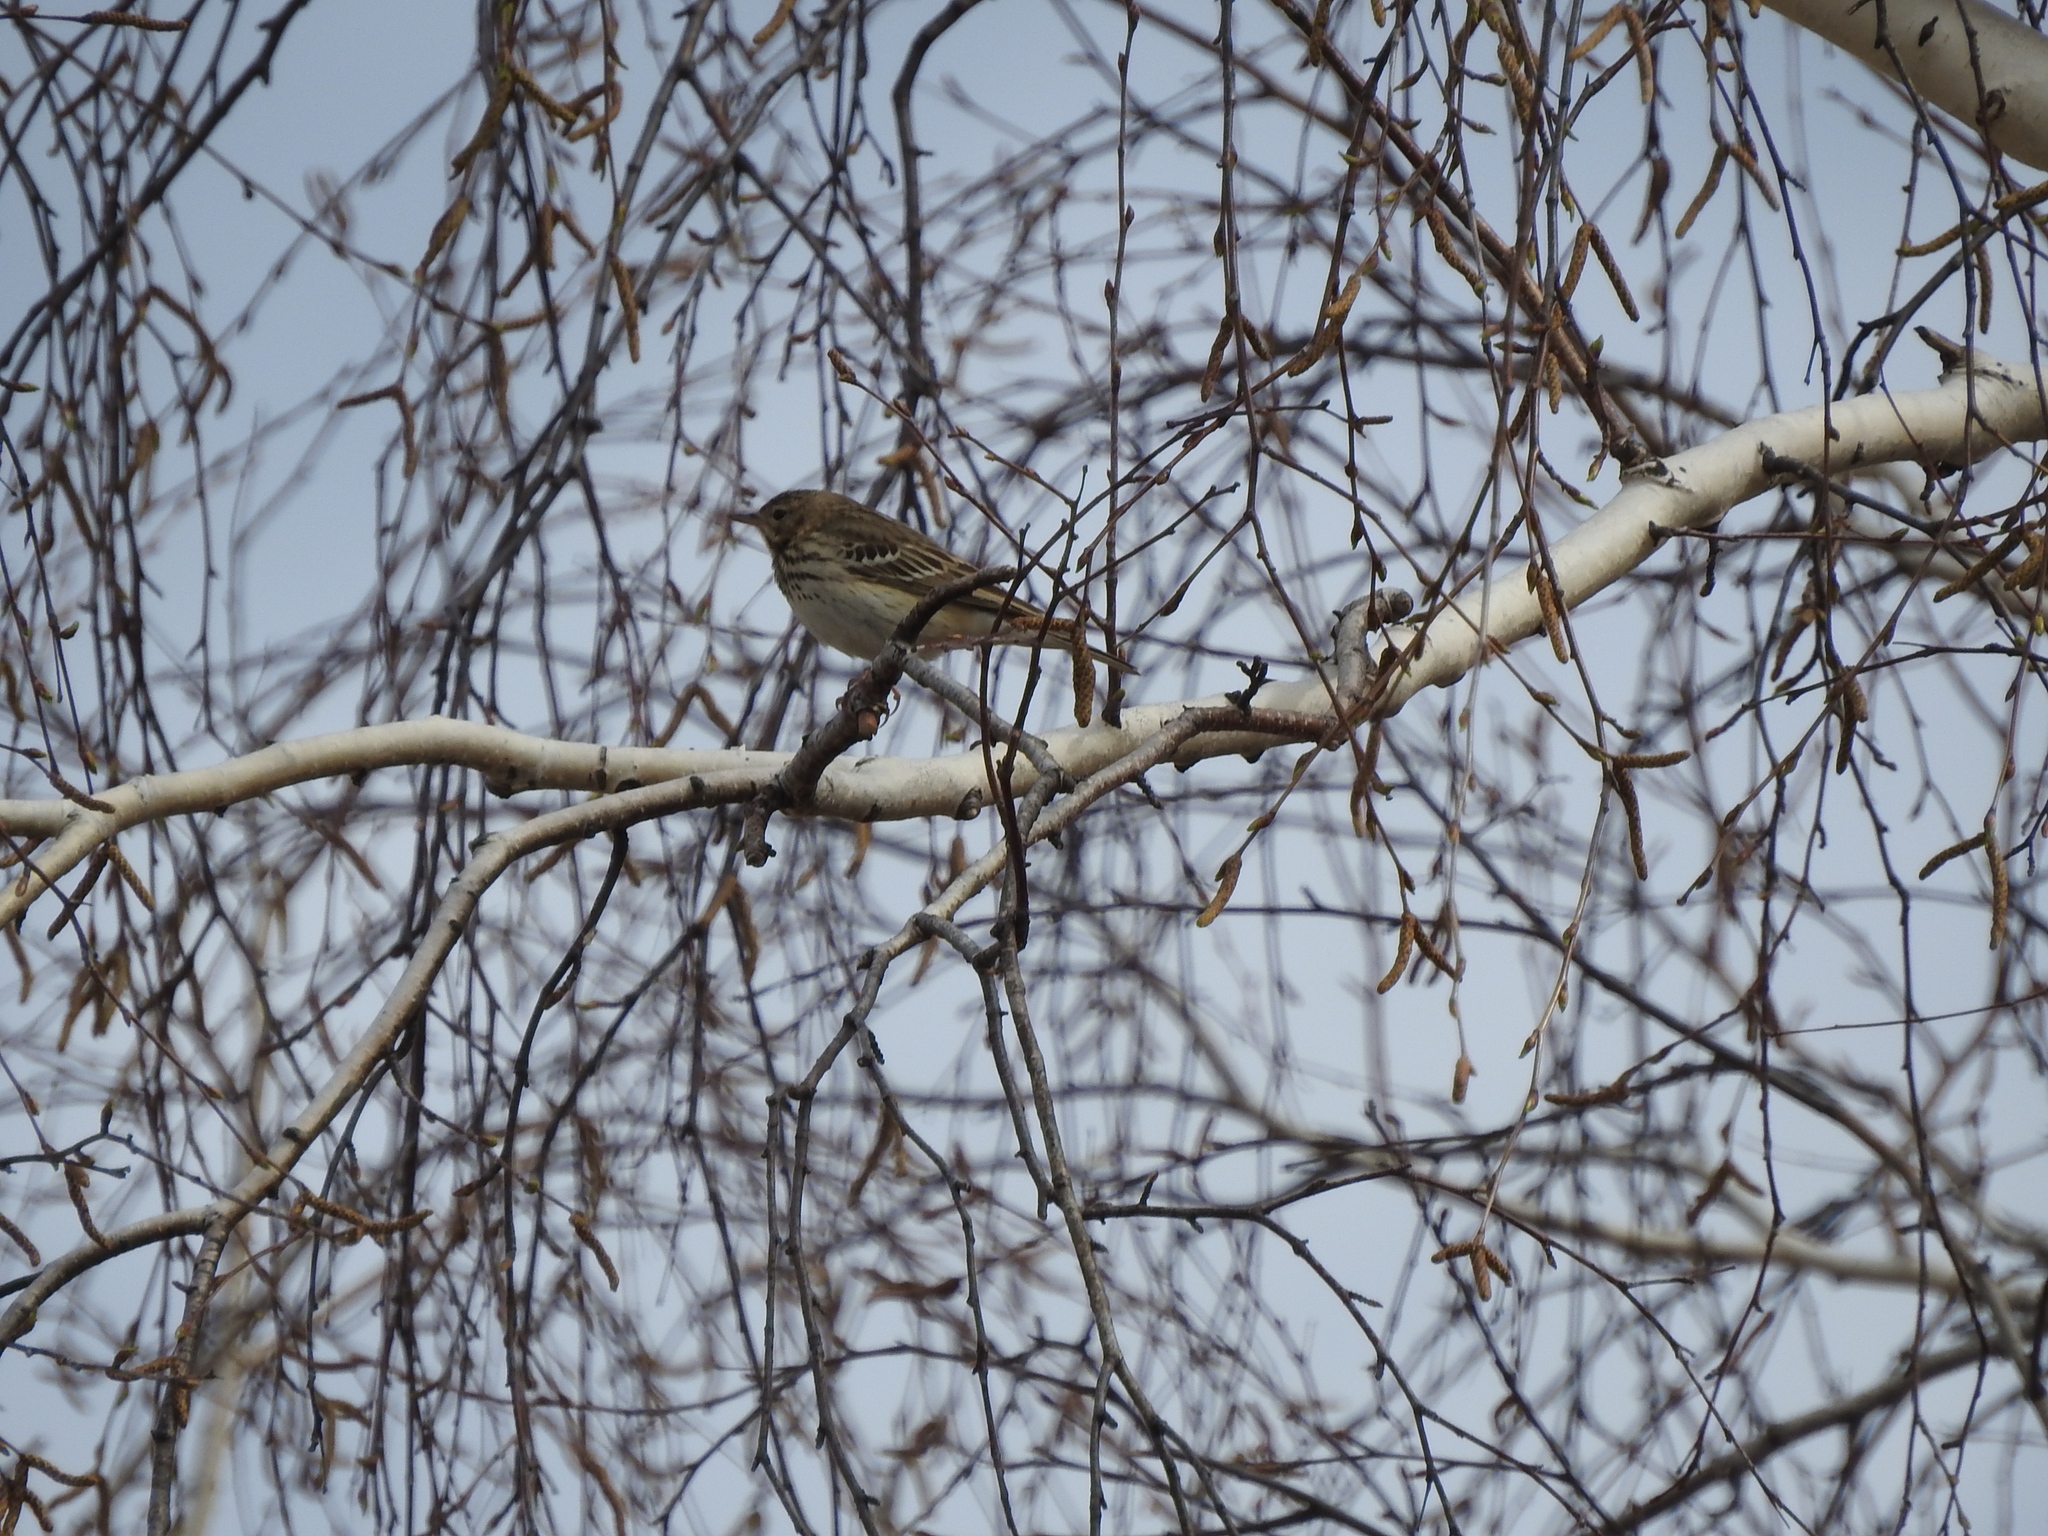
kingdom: Animalia
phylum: Chordata
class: Aves
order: Passeriformes
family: Motacillidae
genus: Anthus
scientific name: Anthus trivialis
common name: Tree pipit
